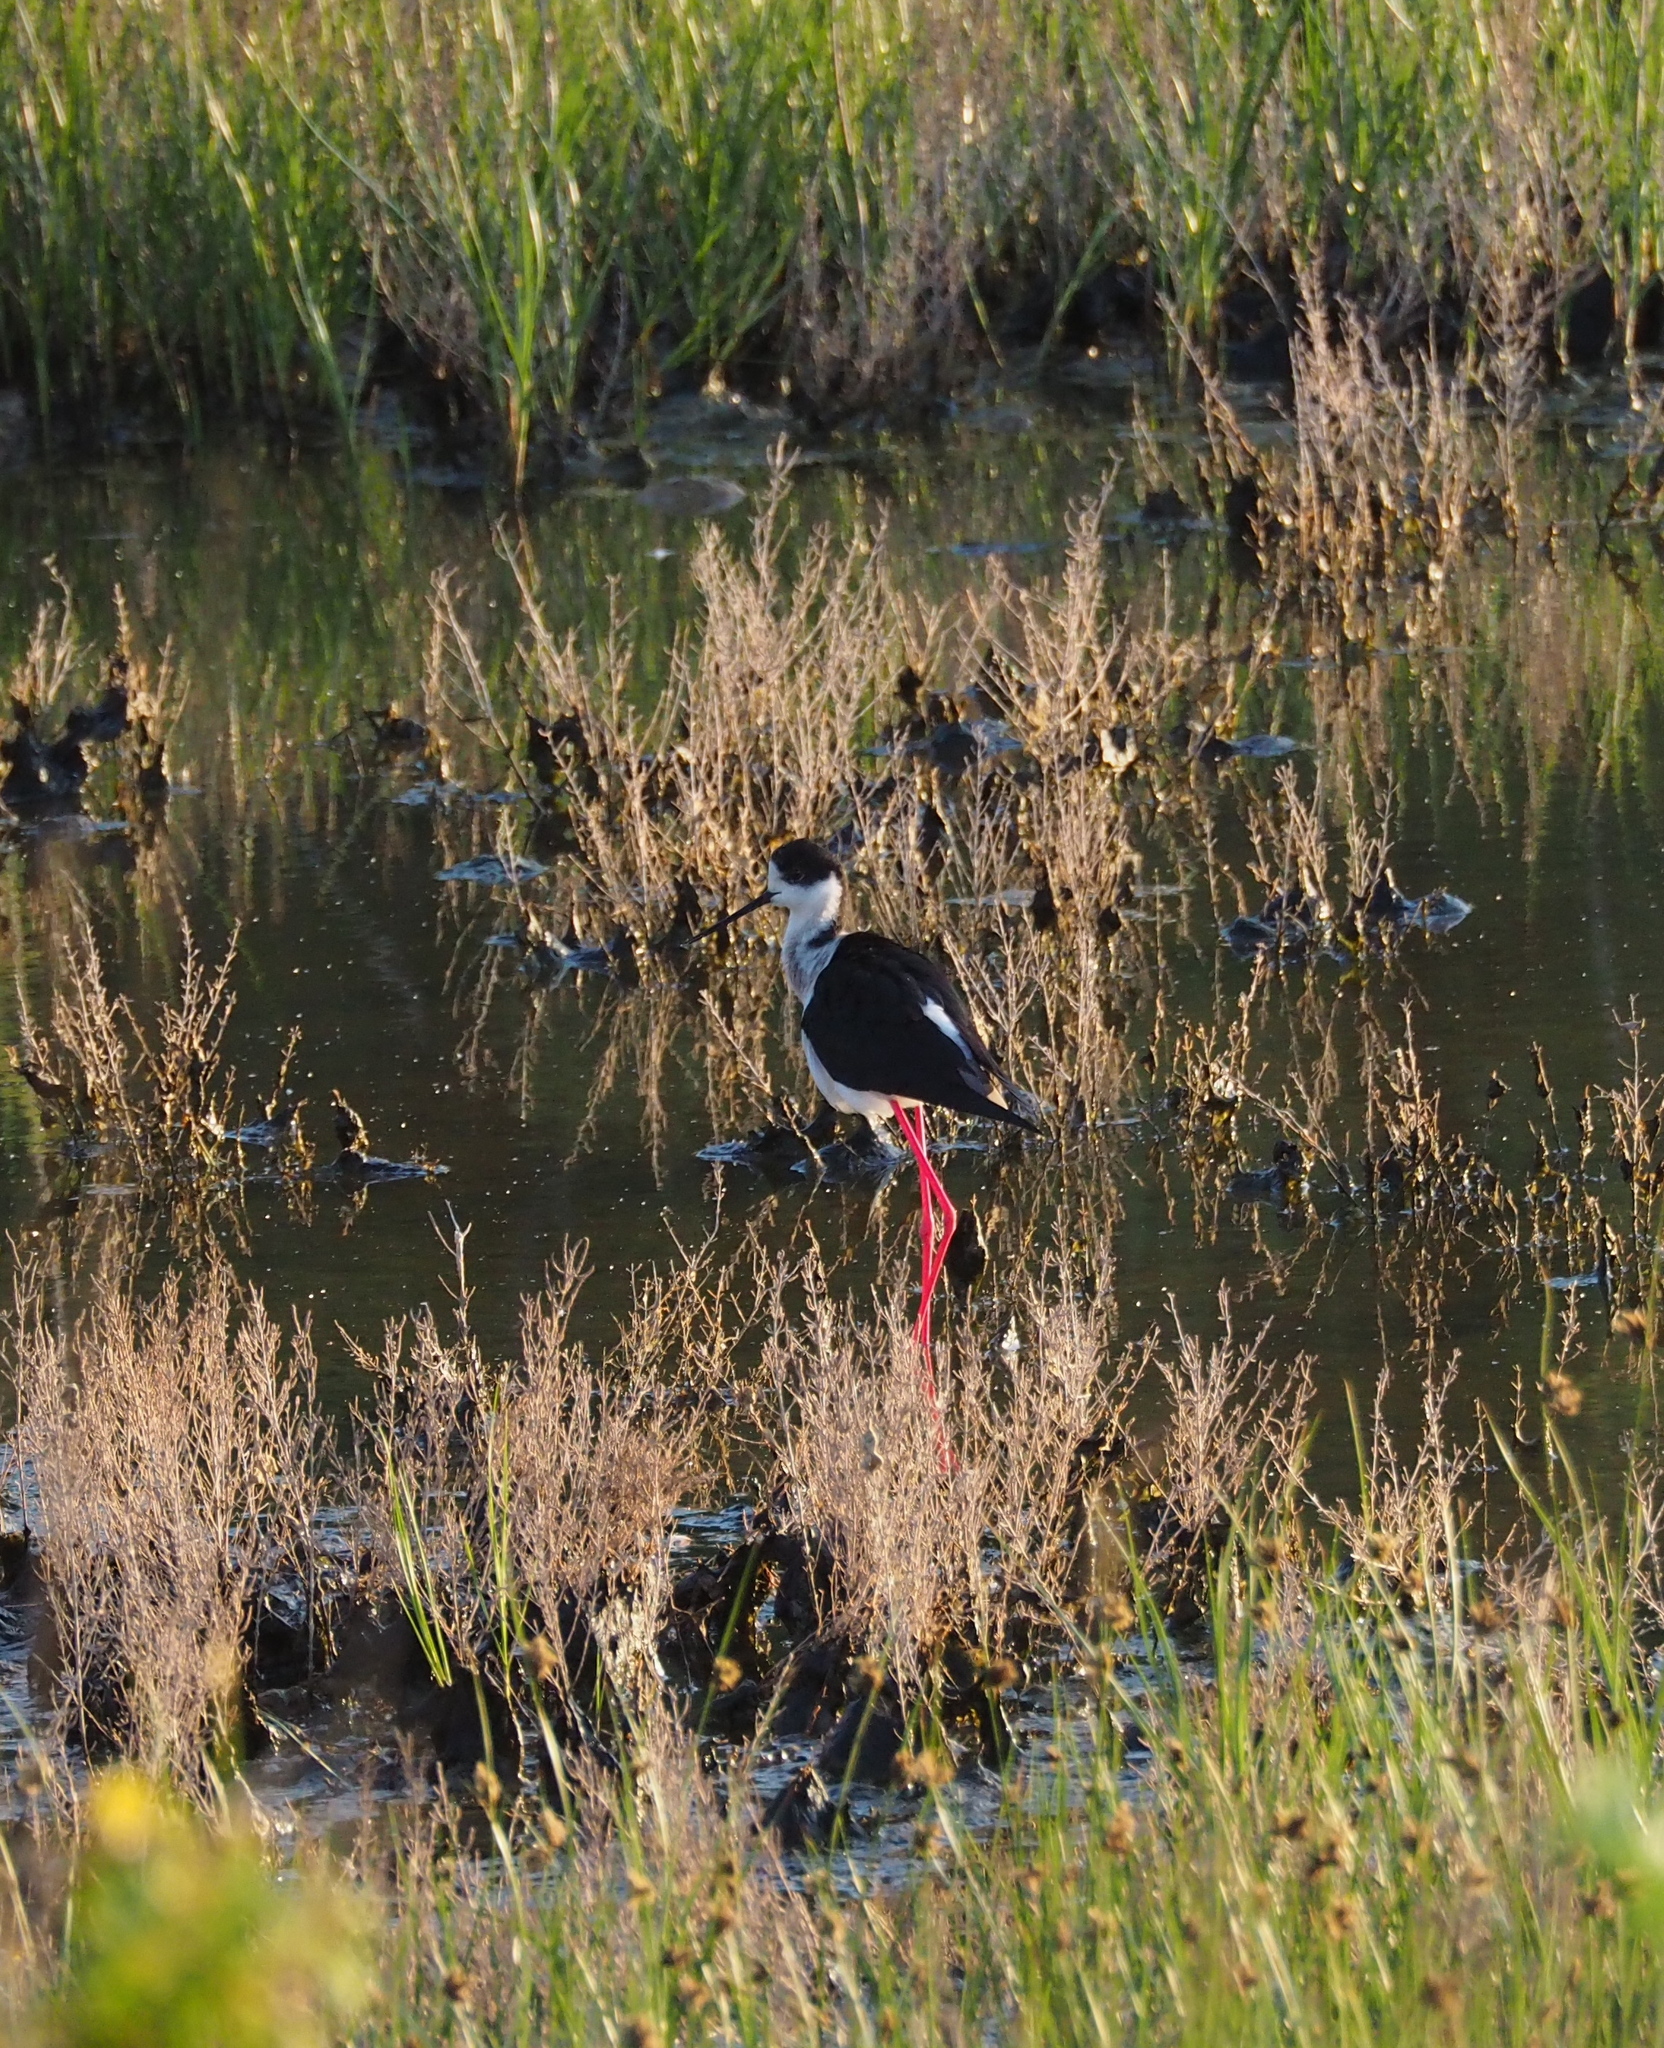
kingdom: Animalia
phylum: Chordata
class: Aves
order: Charadriiformes
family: Recurvirostridae
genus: Himantopus
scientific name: Himantopus himantopus
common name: Black-winged stilt
